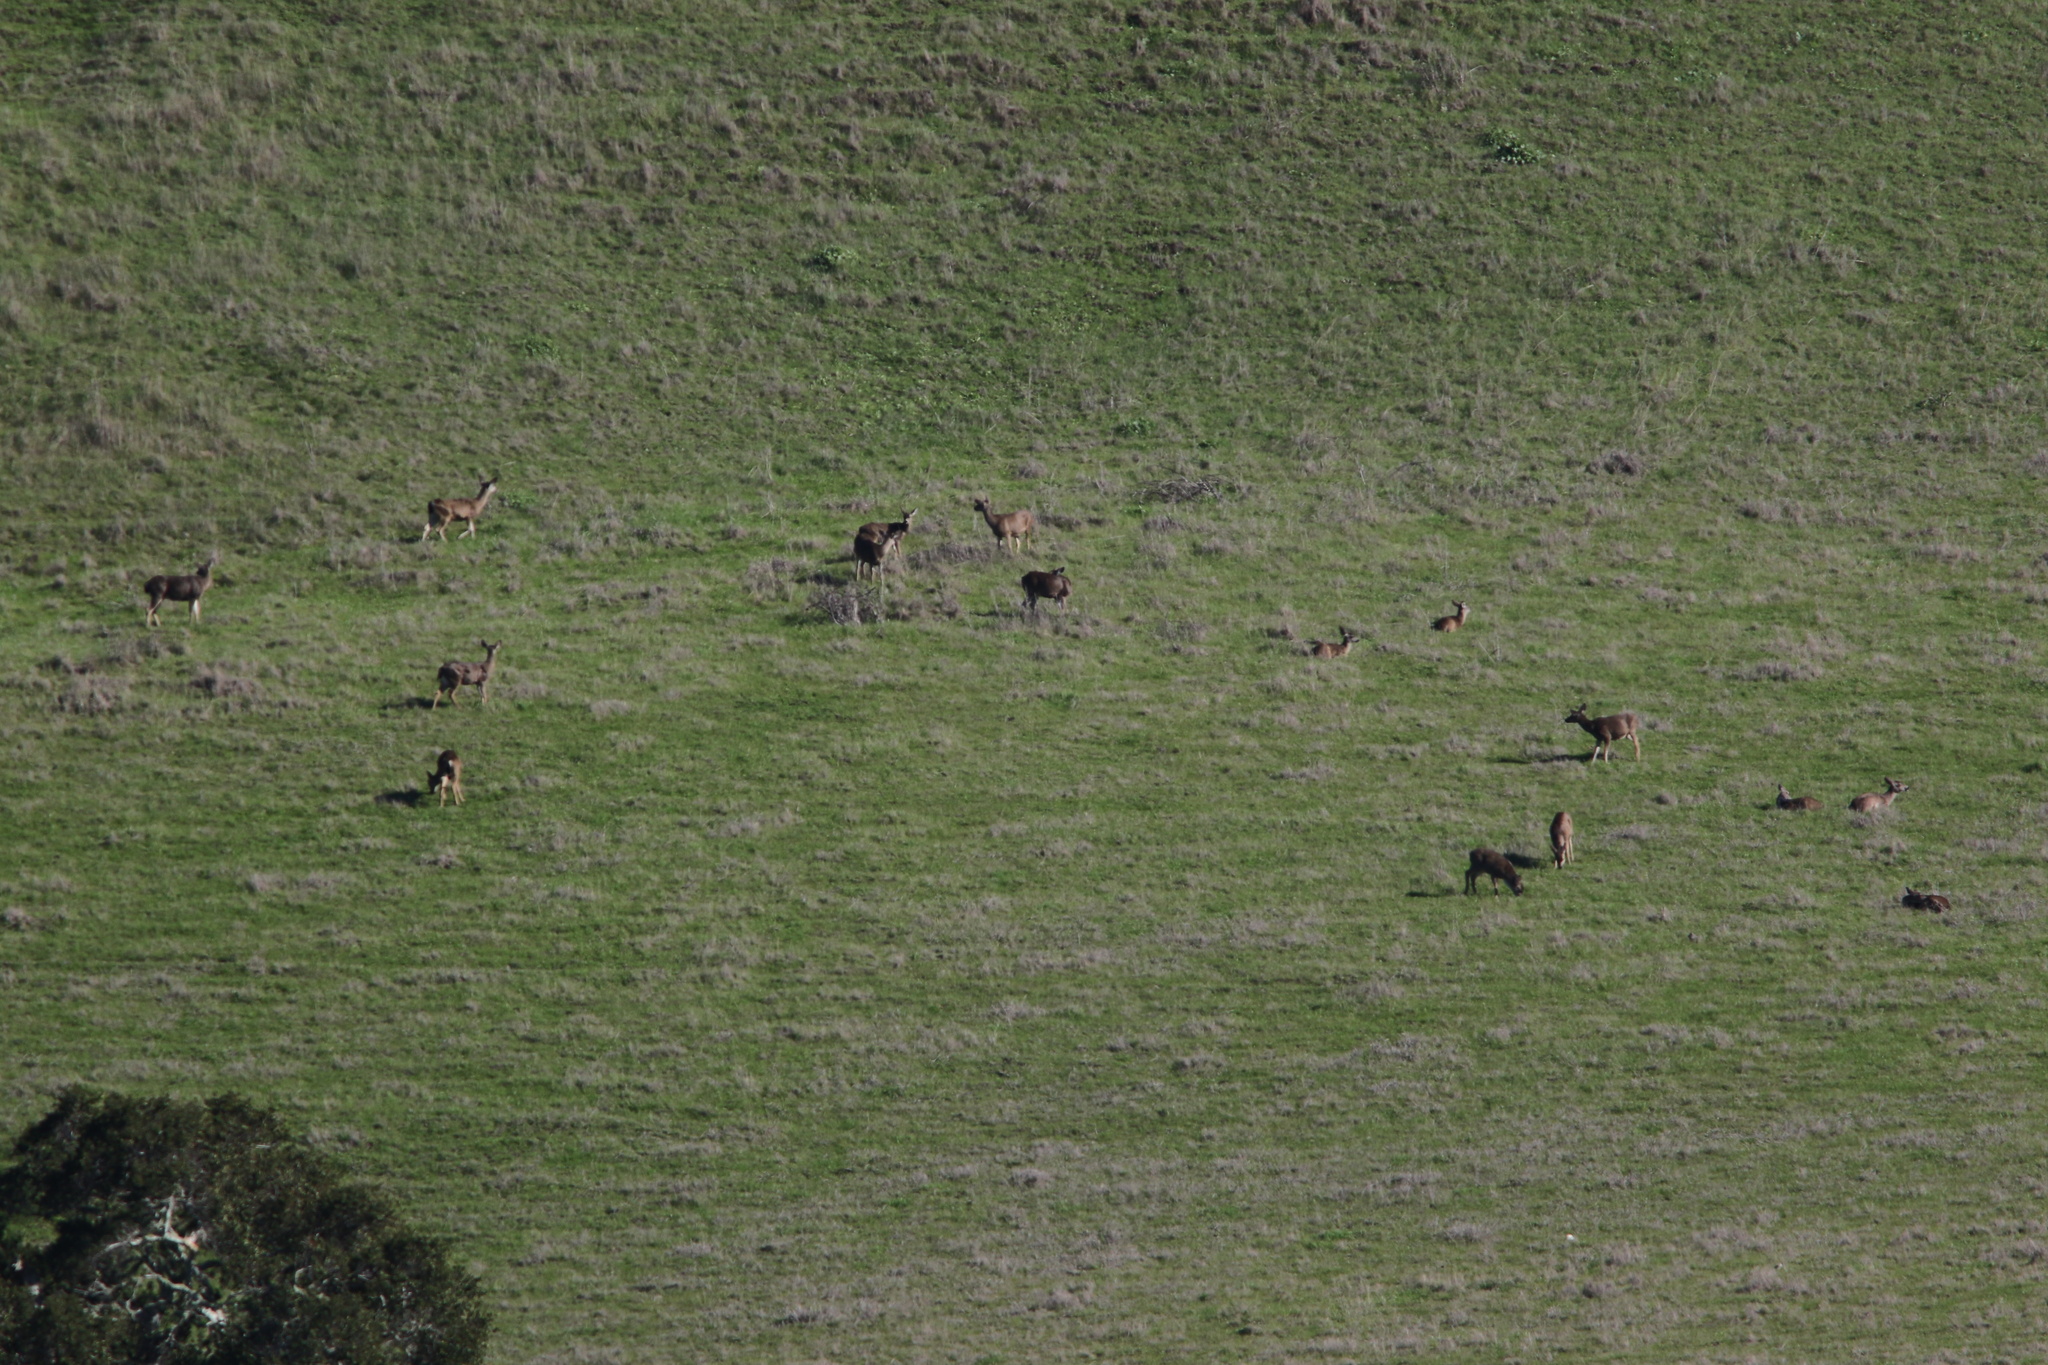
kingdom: Animalia
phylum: Chordata
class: Mammalia
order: Artiodactyla
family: Cervidae
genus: Odocoileus
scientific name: Odocoileus hemionus
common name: Mule deer
